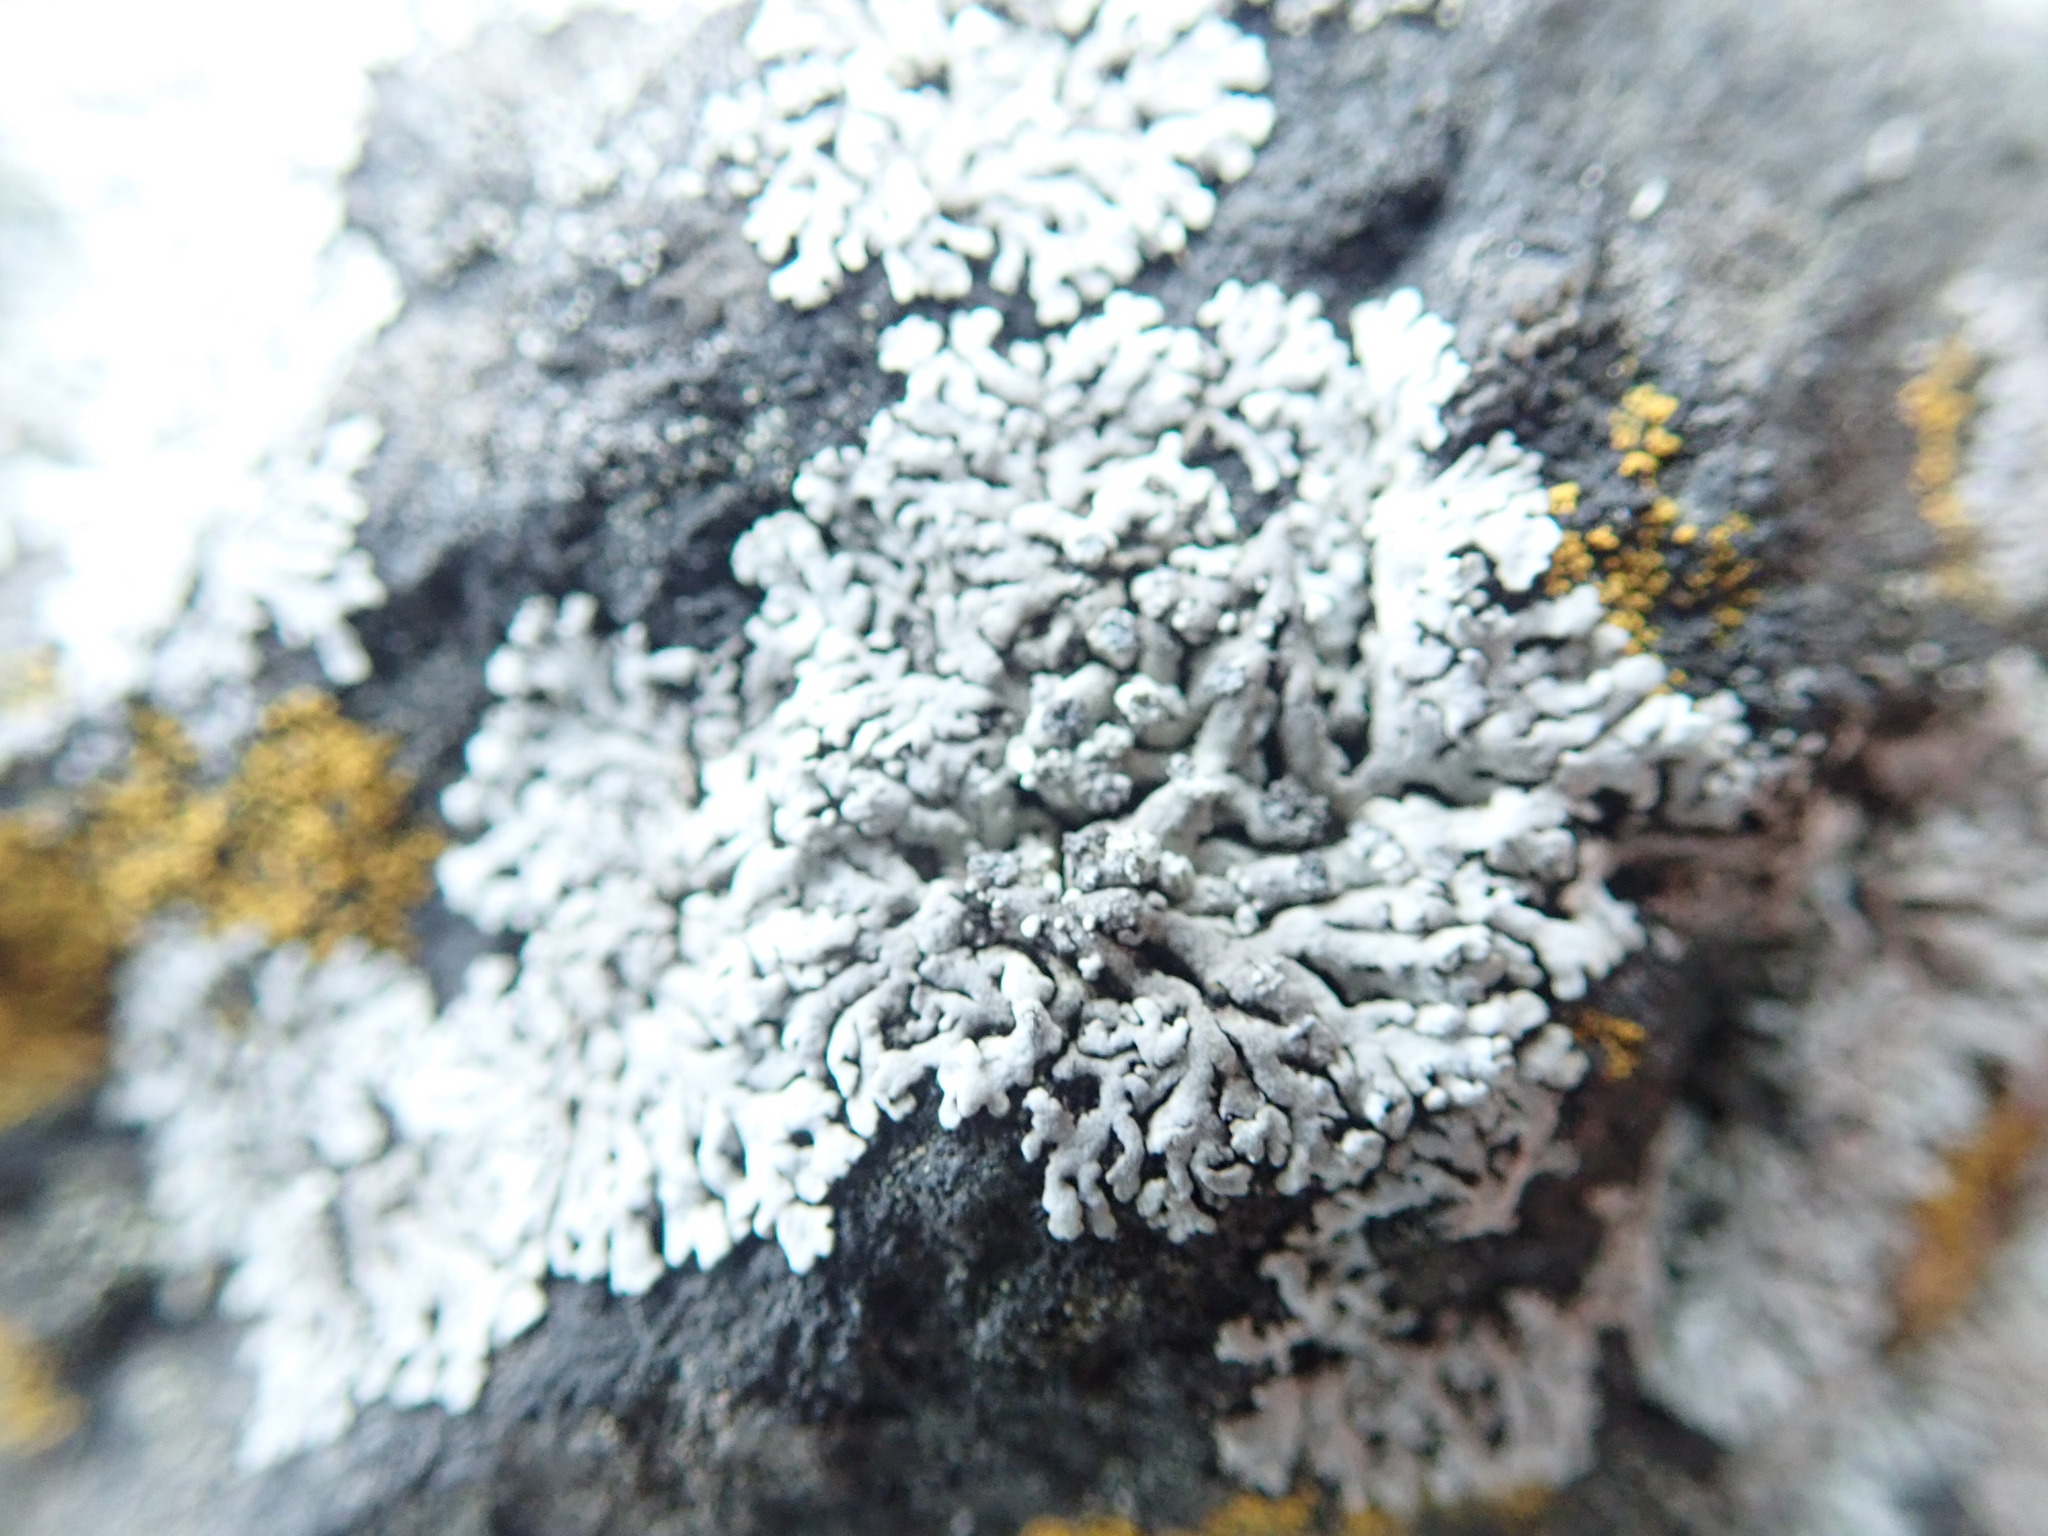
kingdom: Fungi
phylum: Ascomycota
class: Lecanoromycetes
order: Caliciales
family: Physciaceae
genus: Physcia
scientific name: Physcia caesia
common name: Blue-gray rosette lichen
